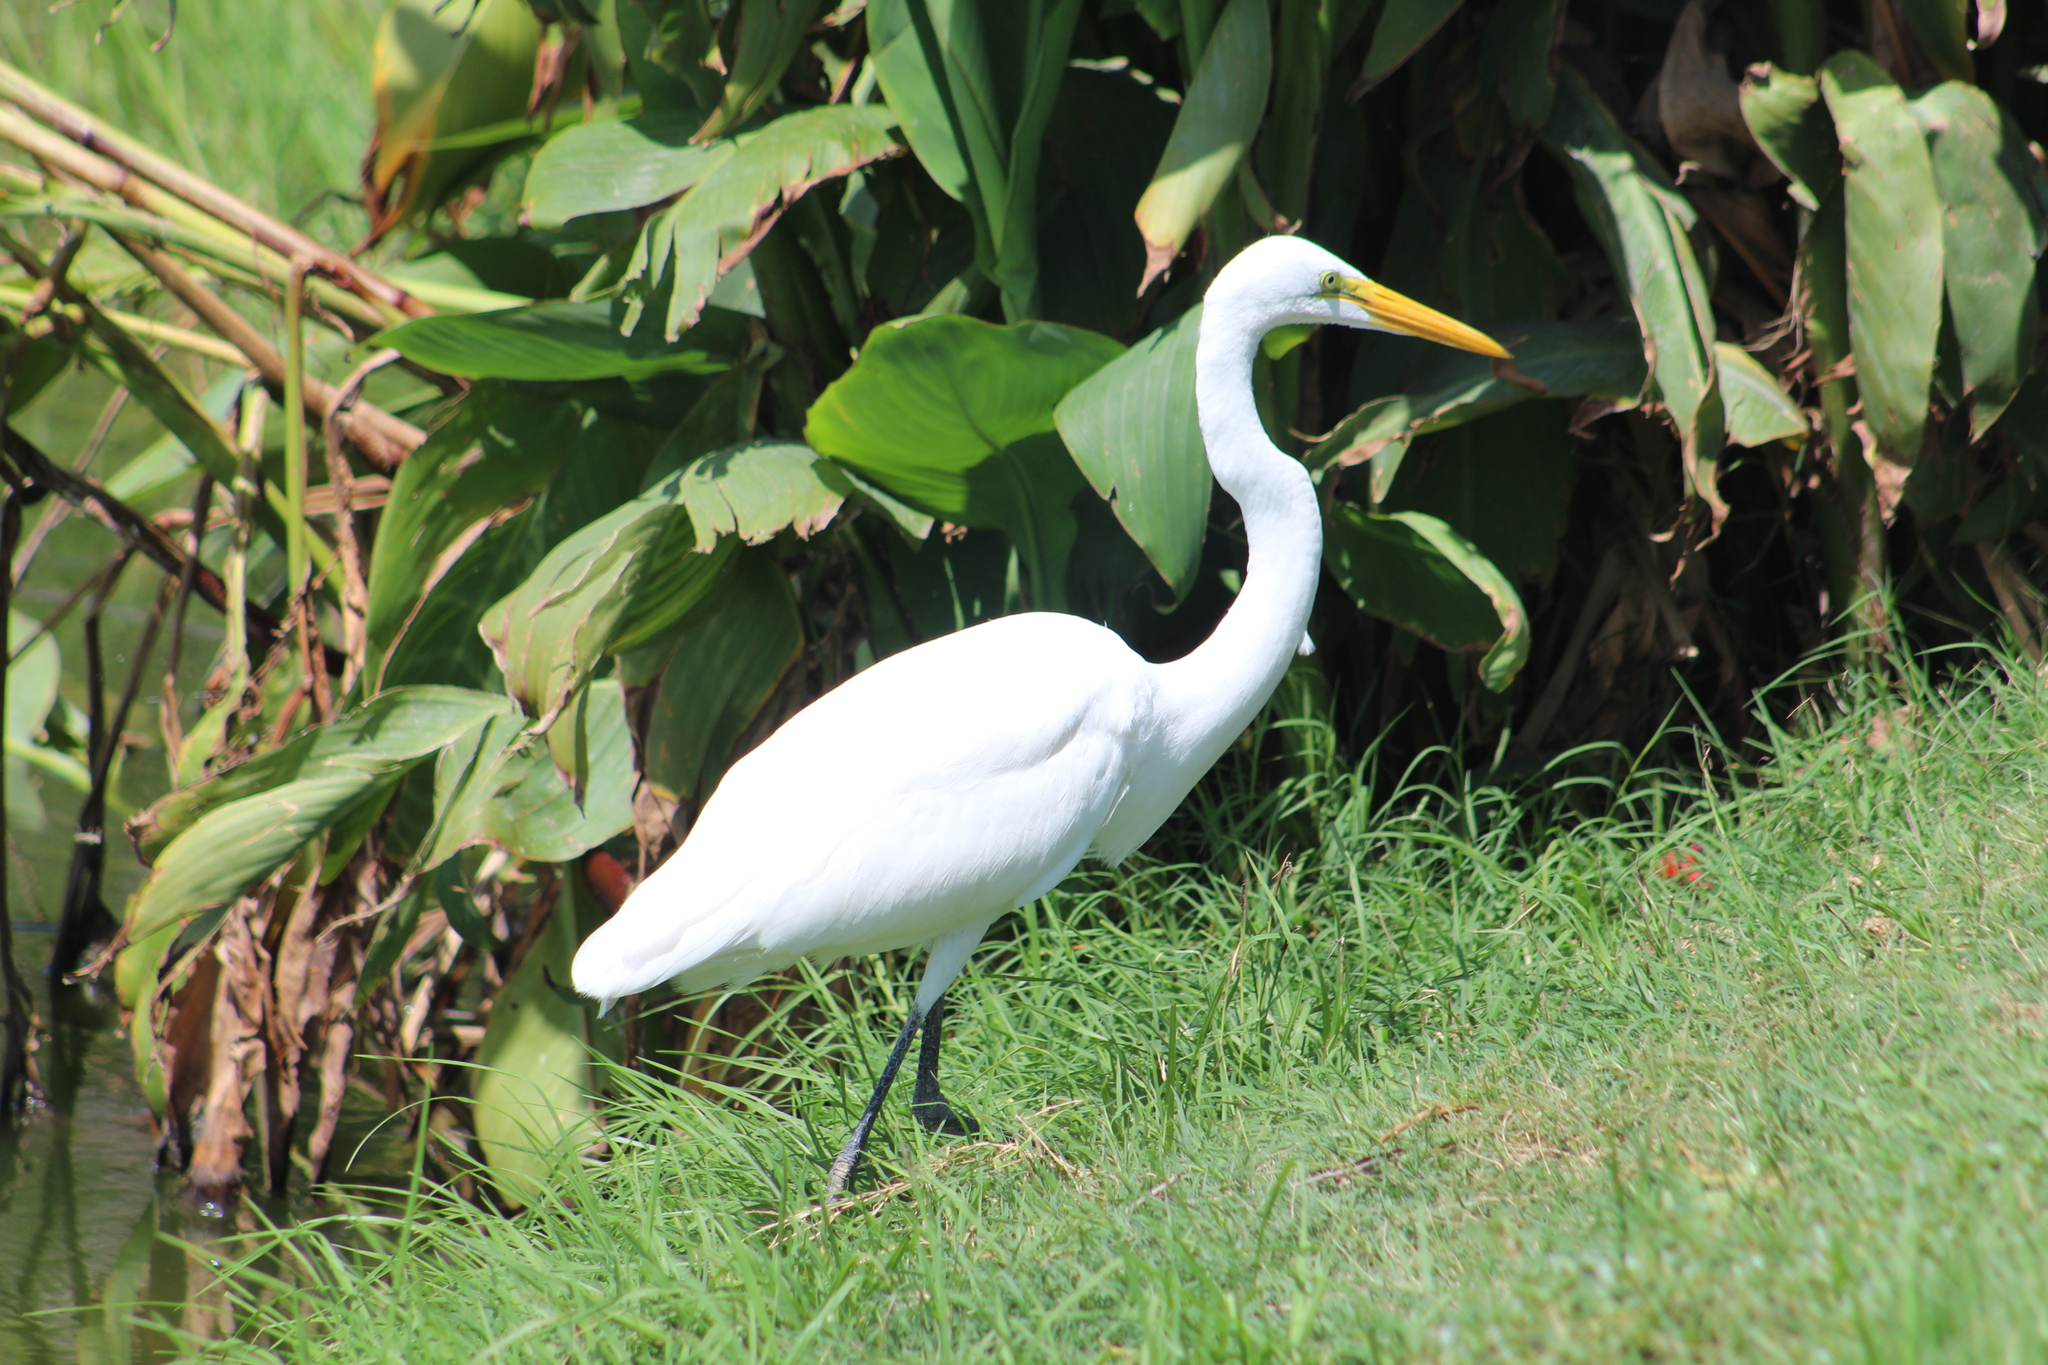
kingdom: Animalia
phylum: Chordata
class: Aves
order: Pelecaniformes
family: Ardeidae
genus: Ardea
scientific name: Ardea alba
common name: Great egret
